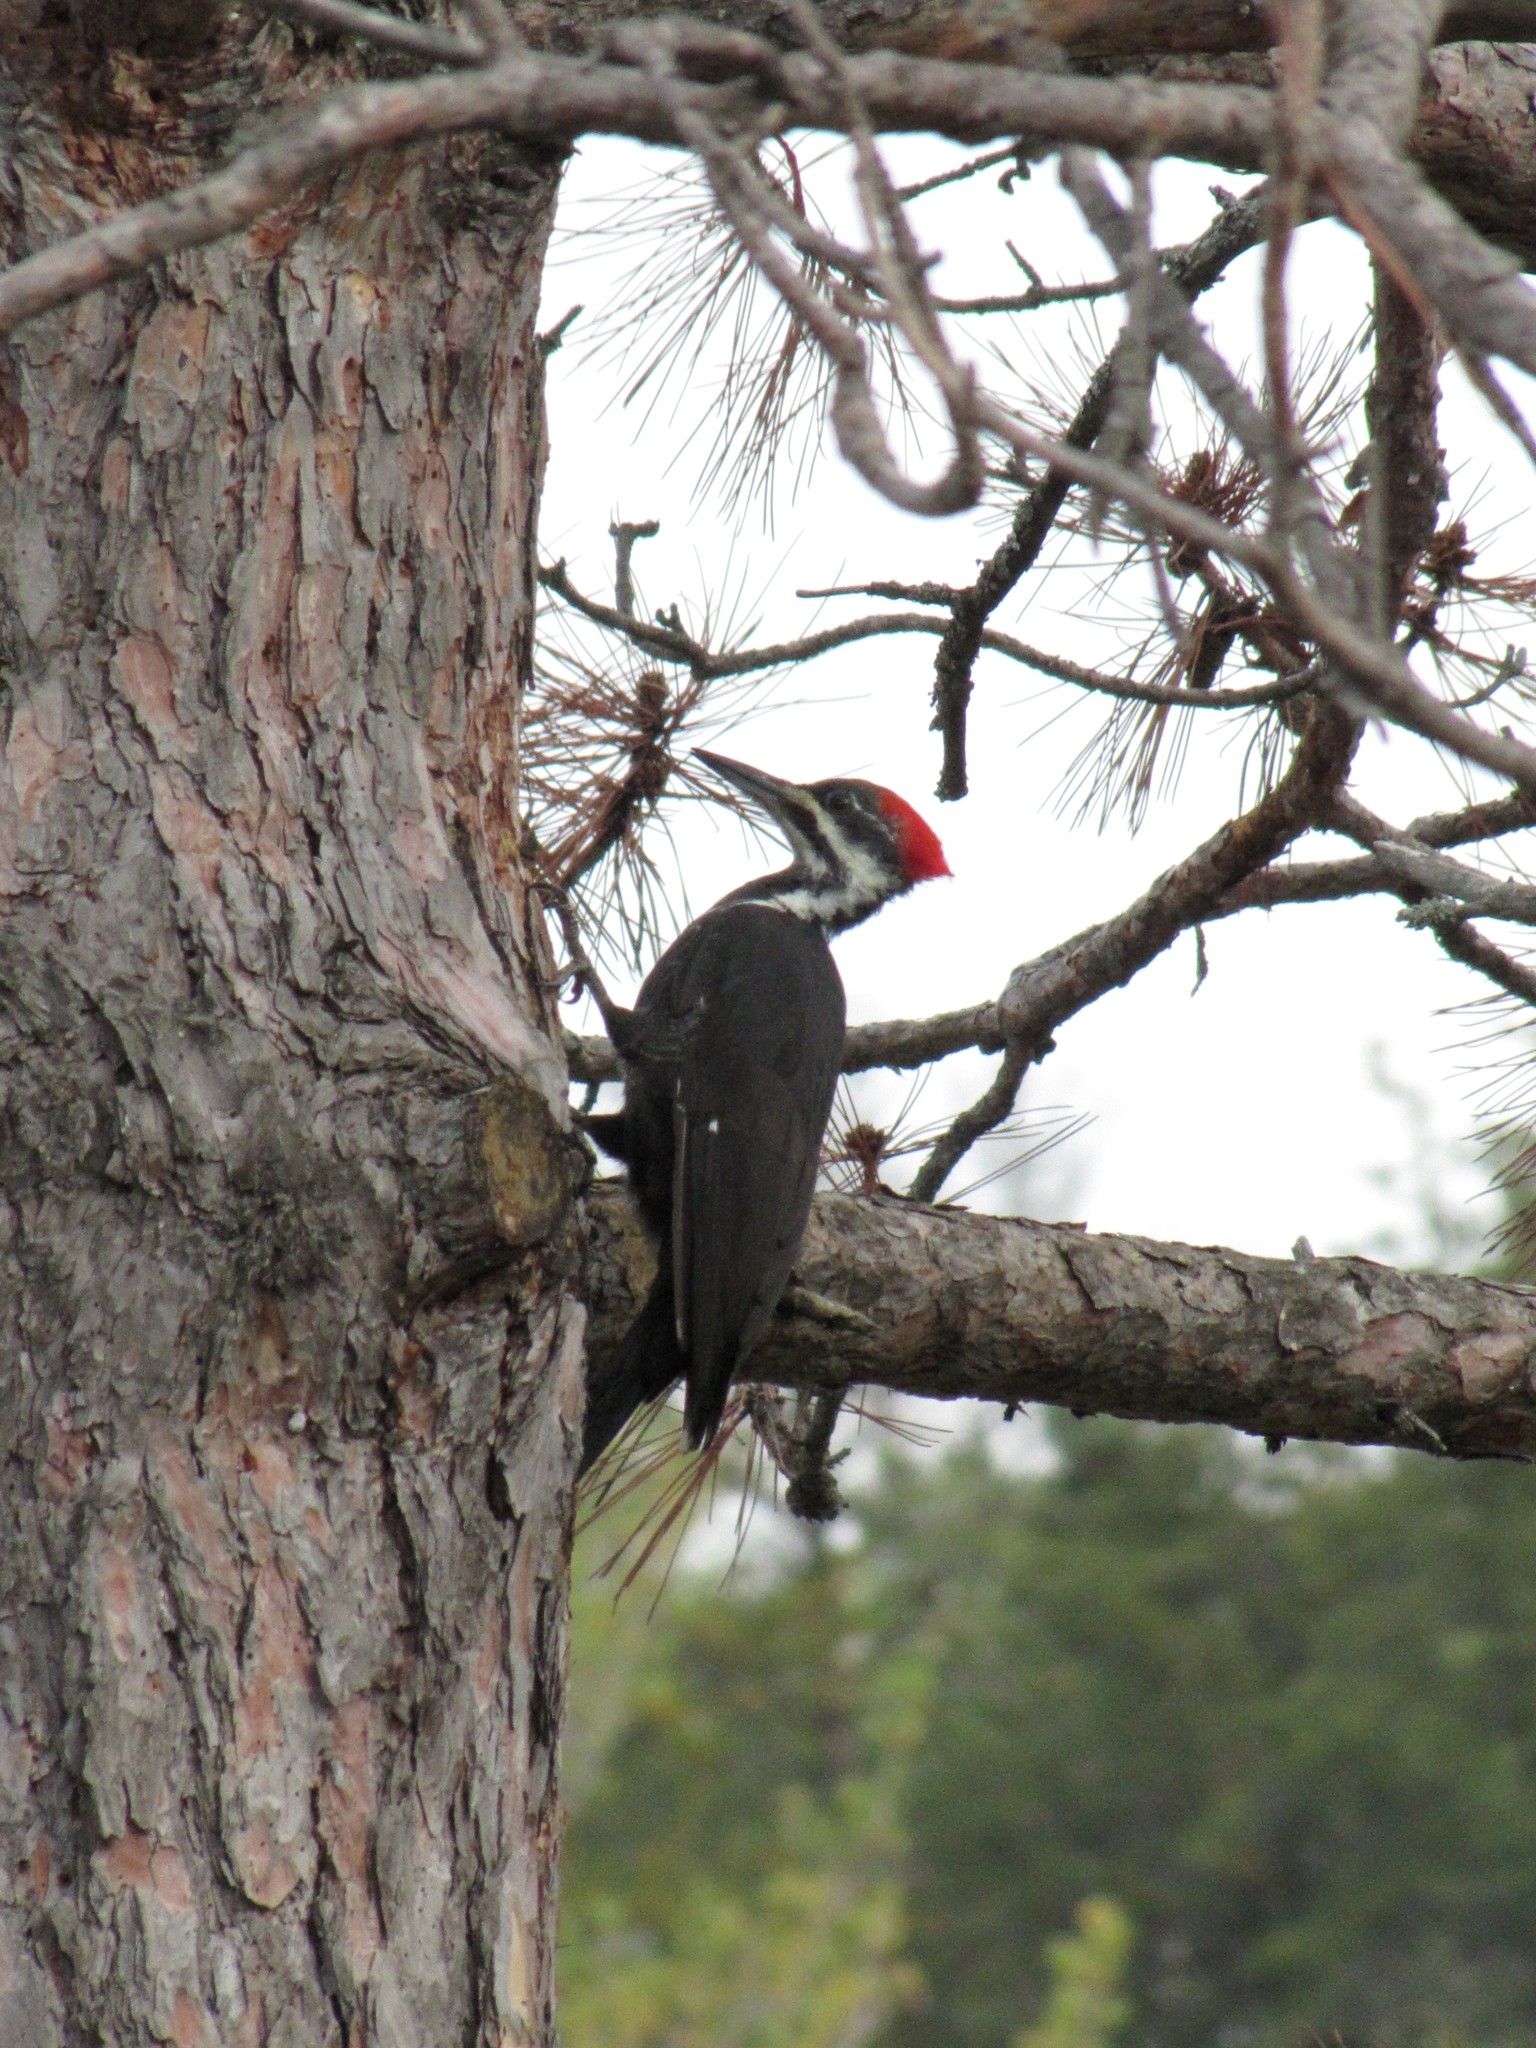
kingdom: Animalia
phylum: Chordata
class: Aves
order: Piciformes
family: Picidae
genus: Dryocopus
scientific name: Dryocopus pileatus
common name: Pileated woodpecker
